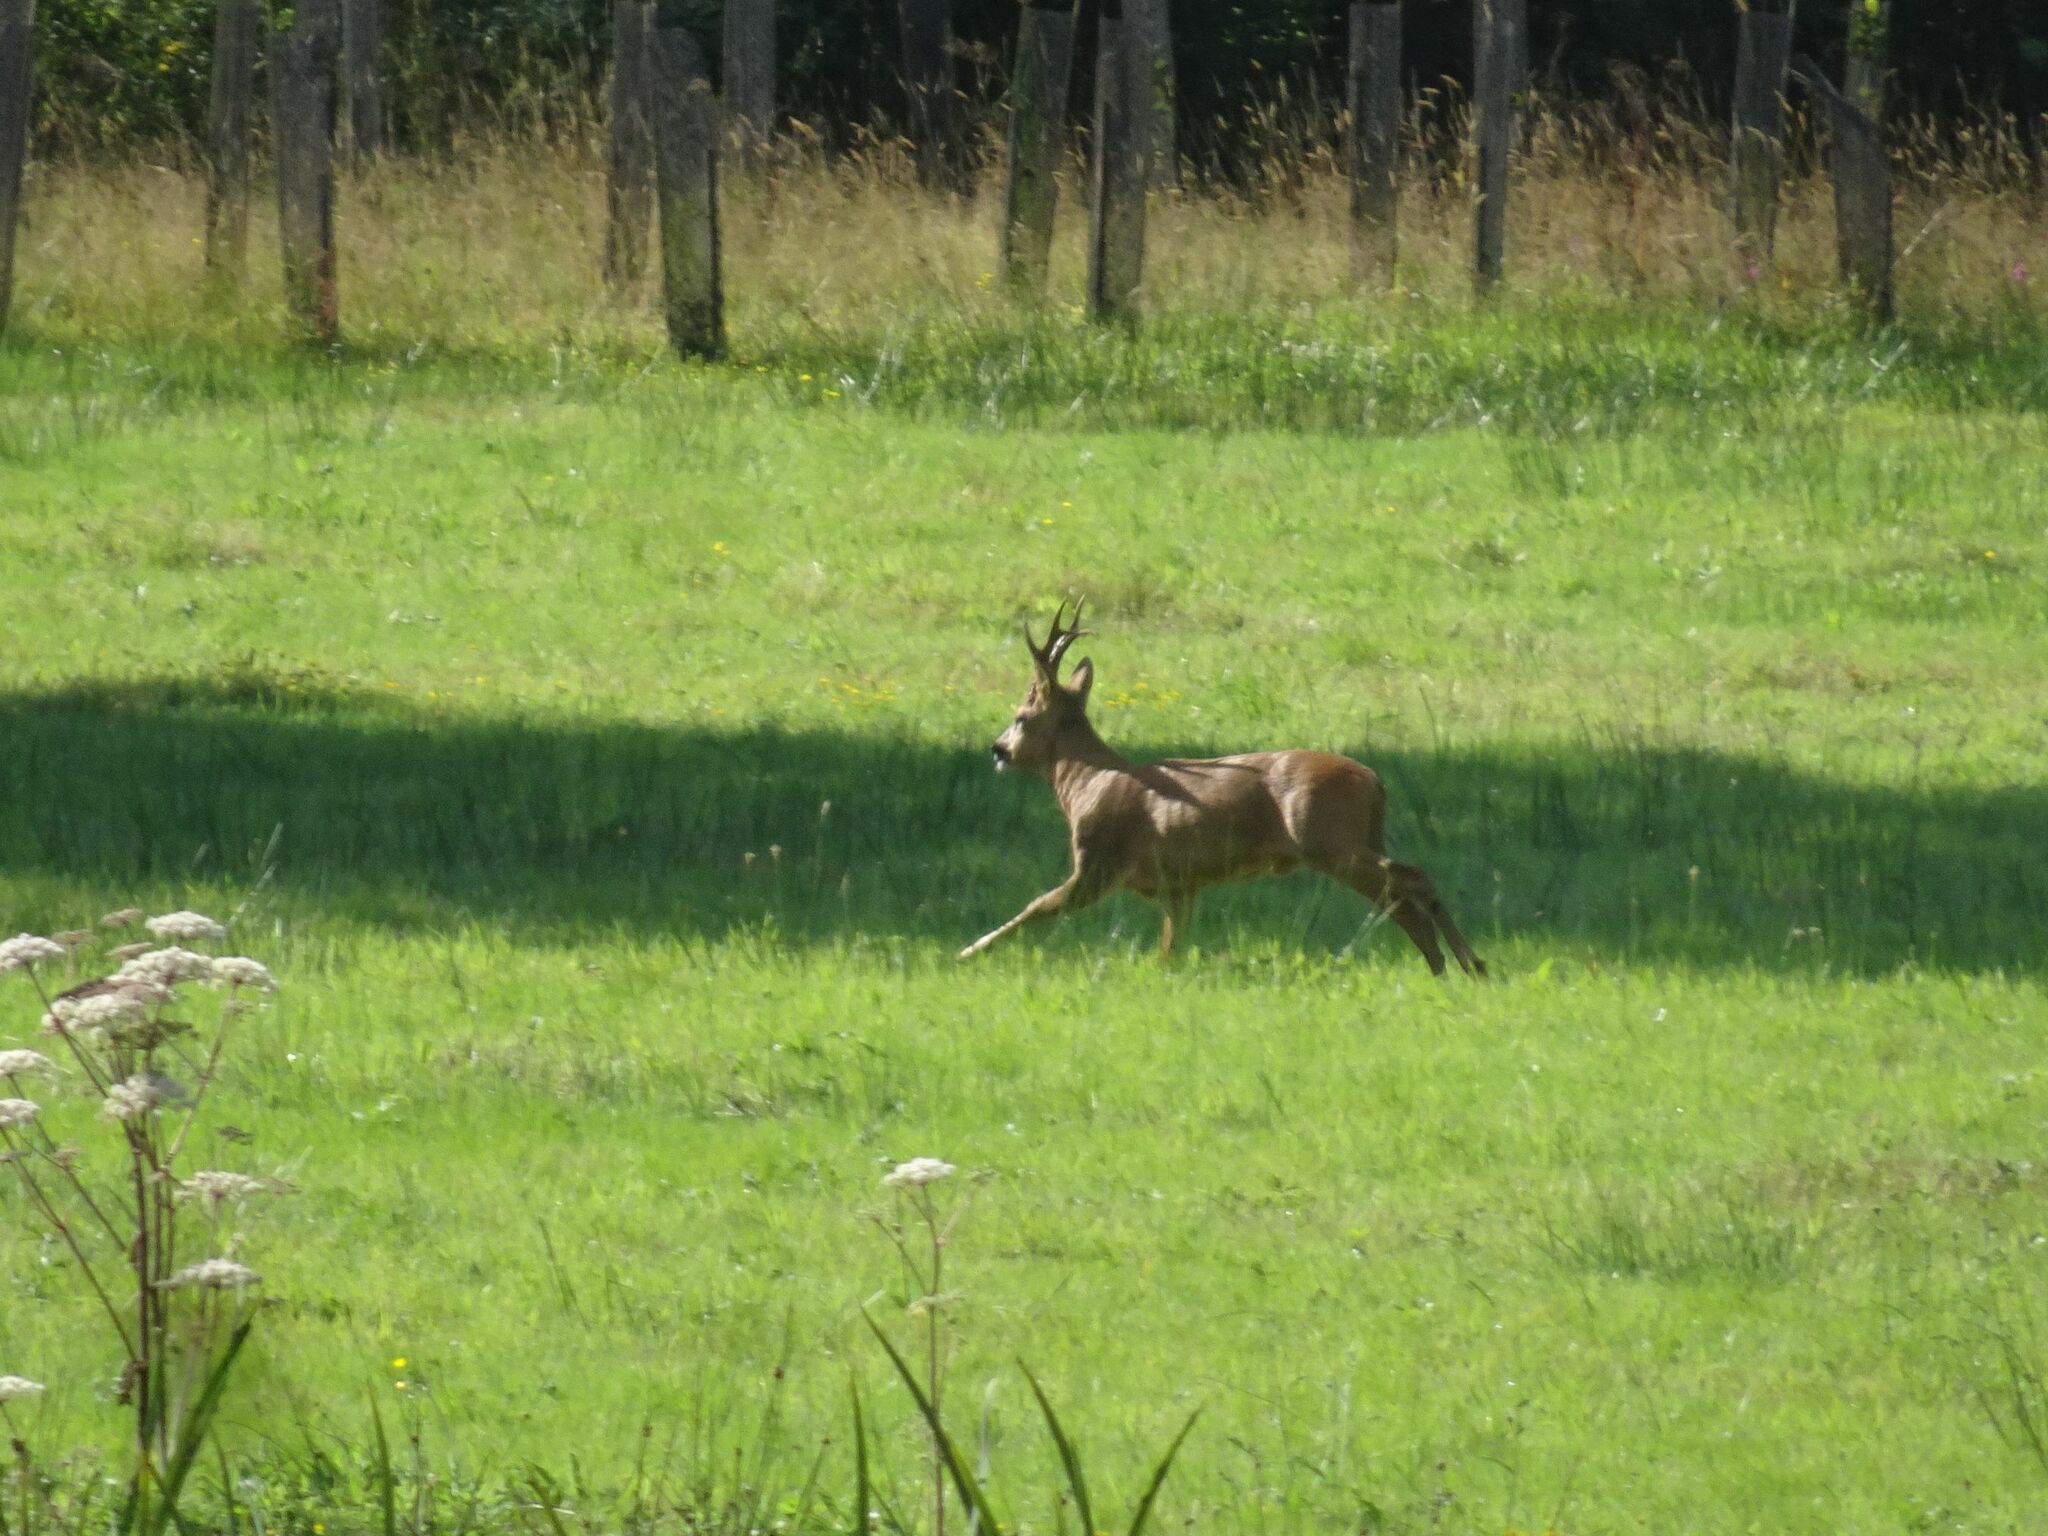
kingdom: Animalia
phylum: Chordata
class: Mammalia
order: Artiodactyla
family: Cervidae
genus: Capreolus
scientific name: Capreolus capreolus
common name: Western roe deer
